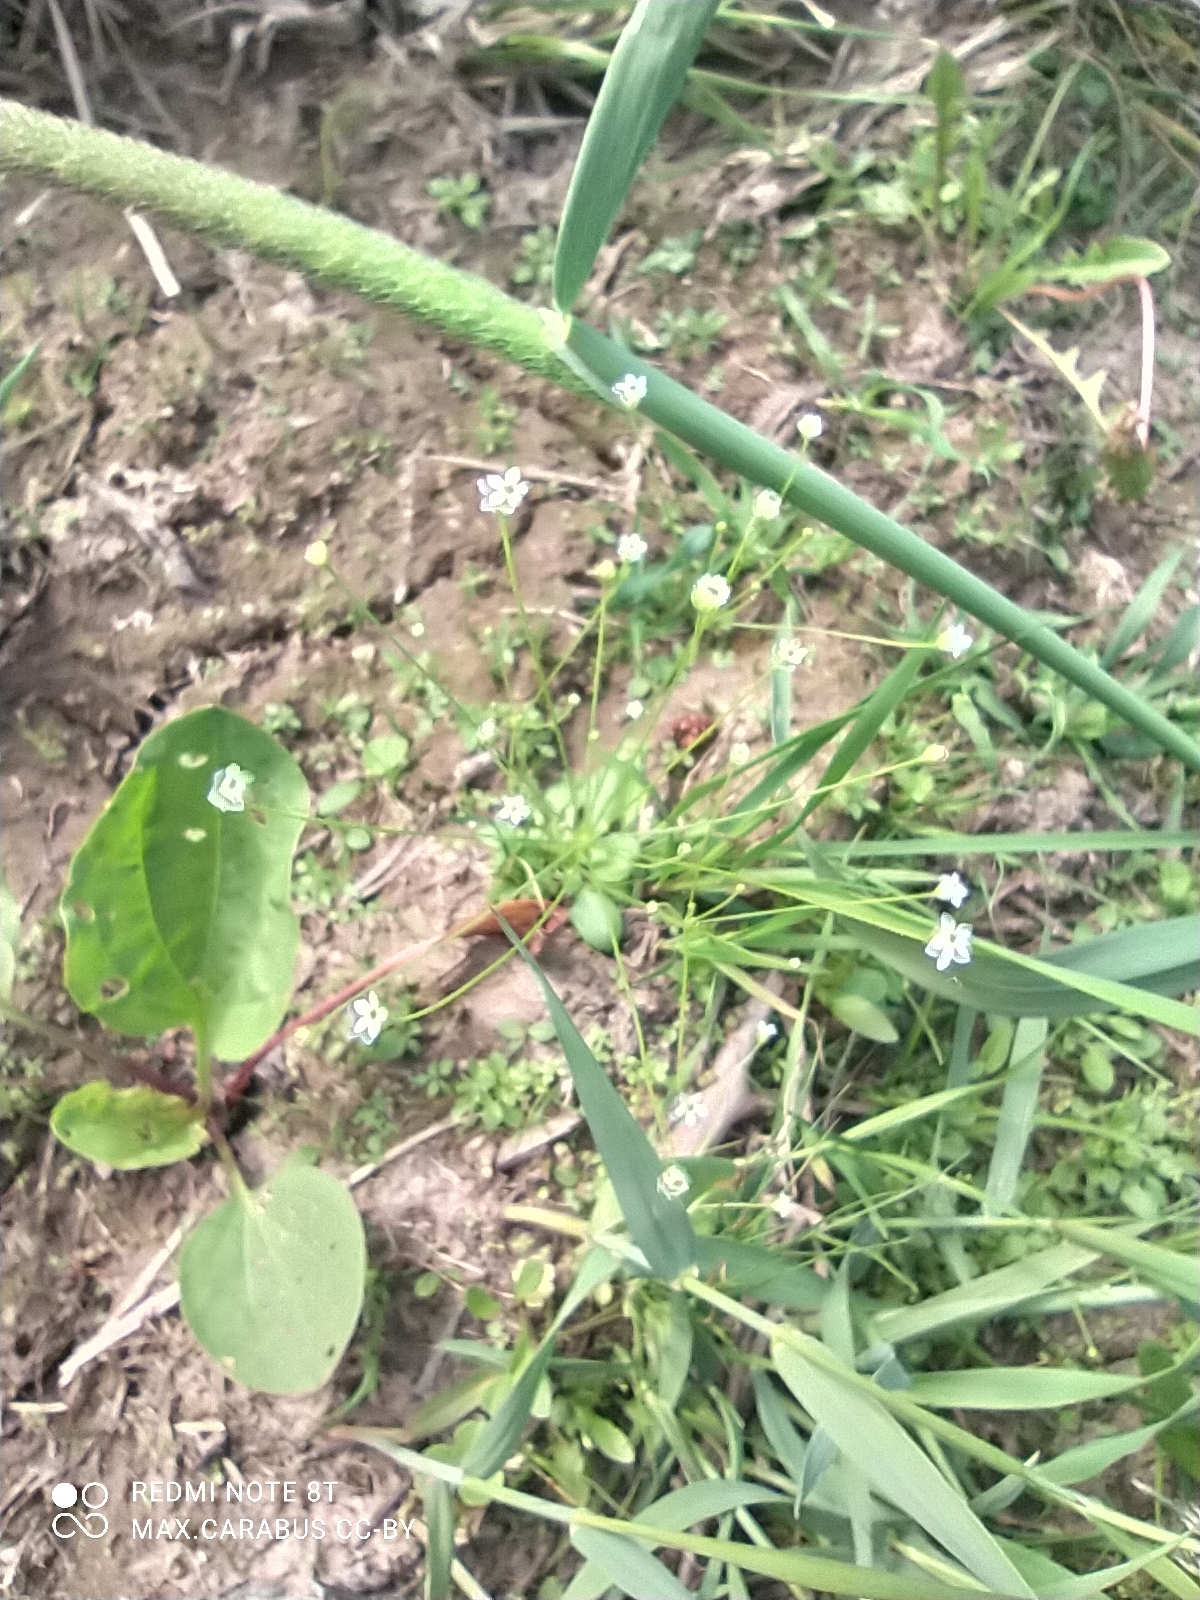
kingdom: Plantae
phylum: Tracheophyta
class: Magnoliopsida
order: Ericales
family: Primulaceae
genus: Androsace
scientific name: Androsace filiformis
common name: Filiform rock jasmine
